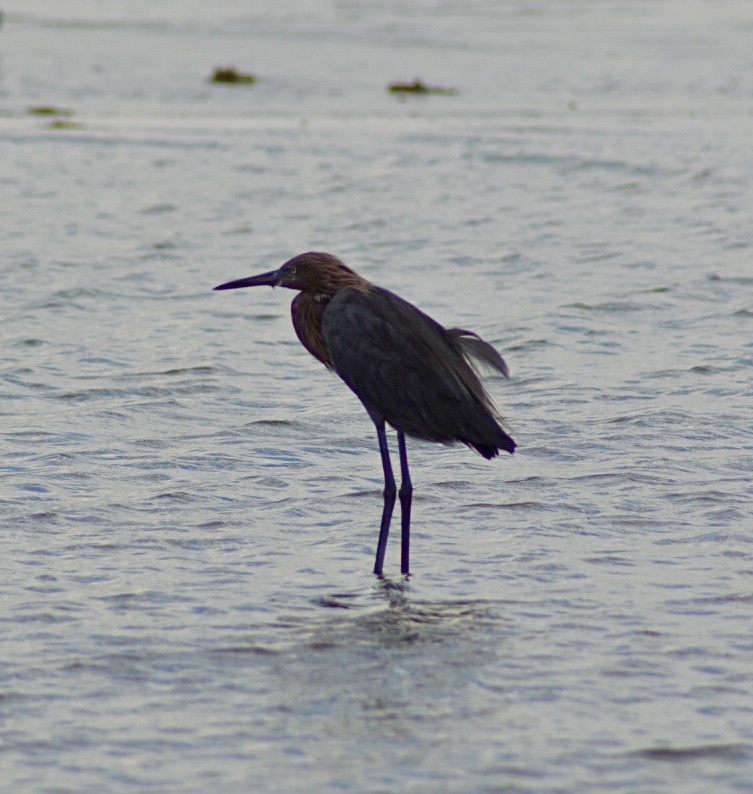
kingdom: Animalia
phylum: Chordata
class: Aves
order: Pelecaniformes
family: Ardeidae
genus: Egretta
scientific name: Egretta rufescens
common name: Reddish egret
